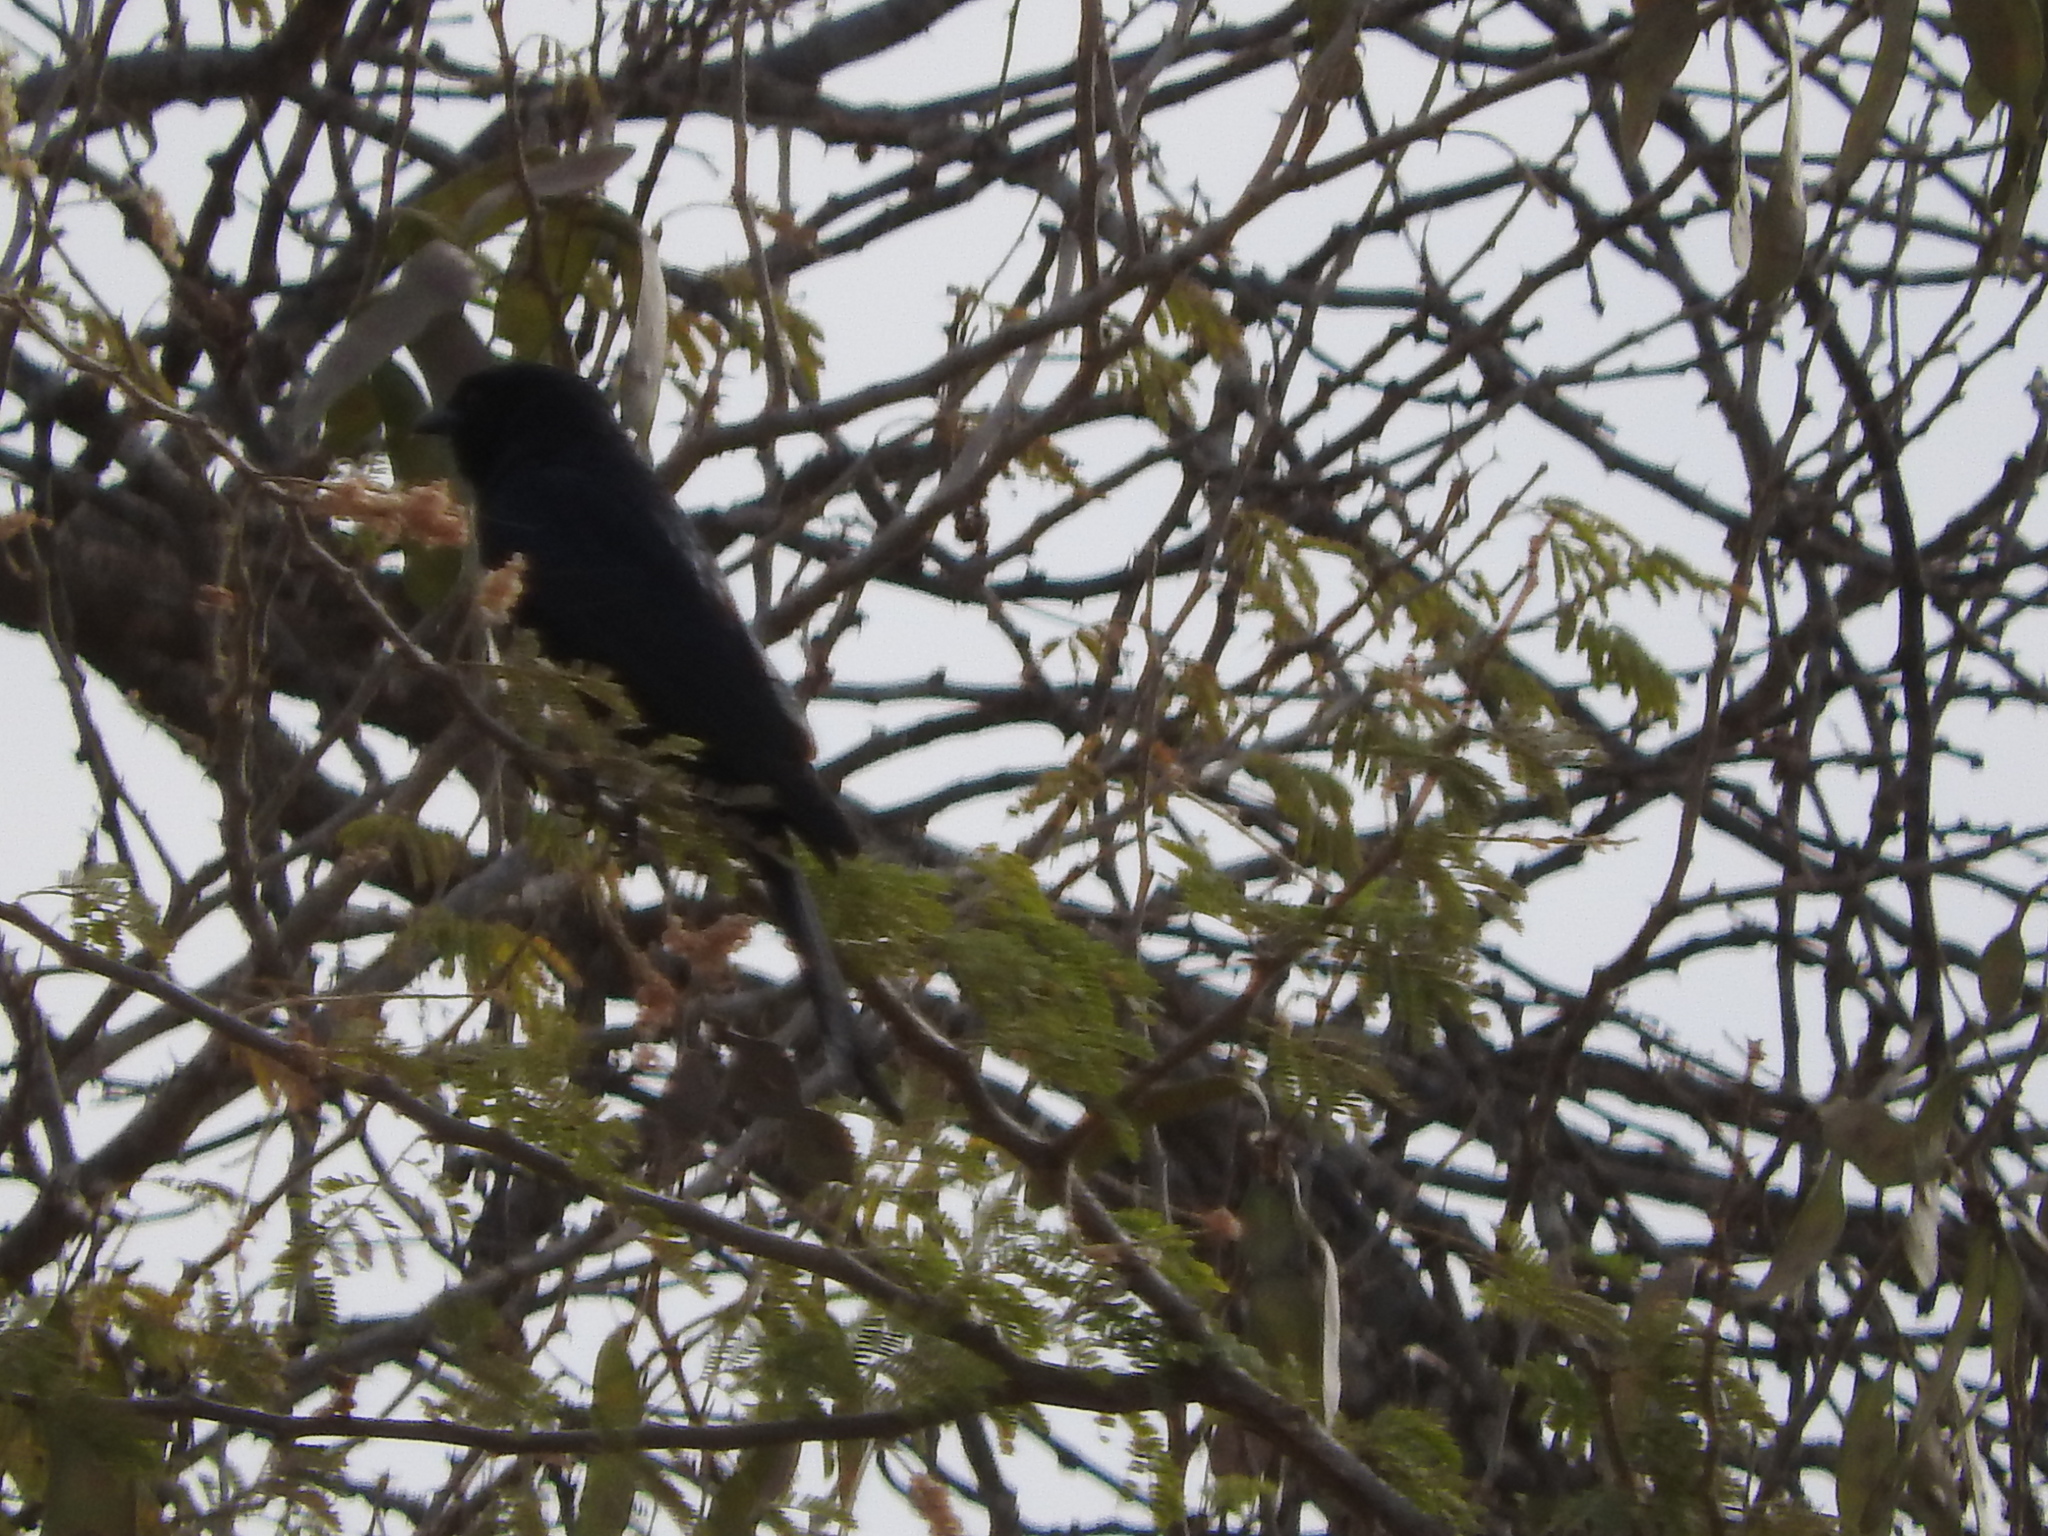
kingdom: Animalia
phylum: Chordata
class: Aves
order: Passeriformes
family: Dicruridae
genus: Dicrurus
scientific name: Dicrurus adsimilis
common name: Fork-tailed drongo
